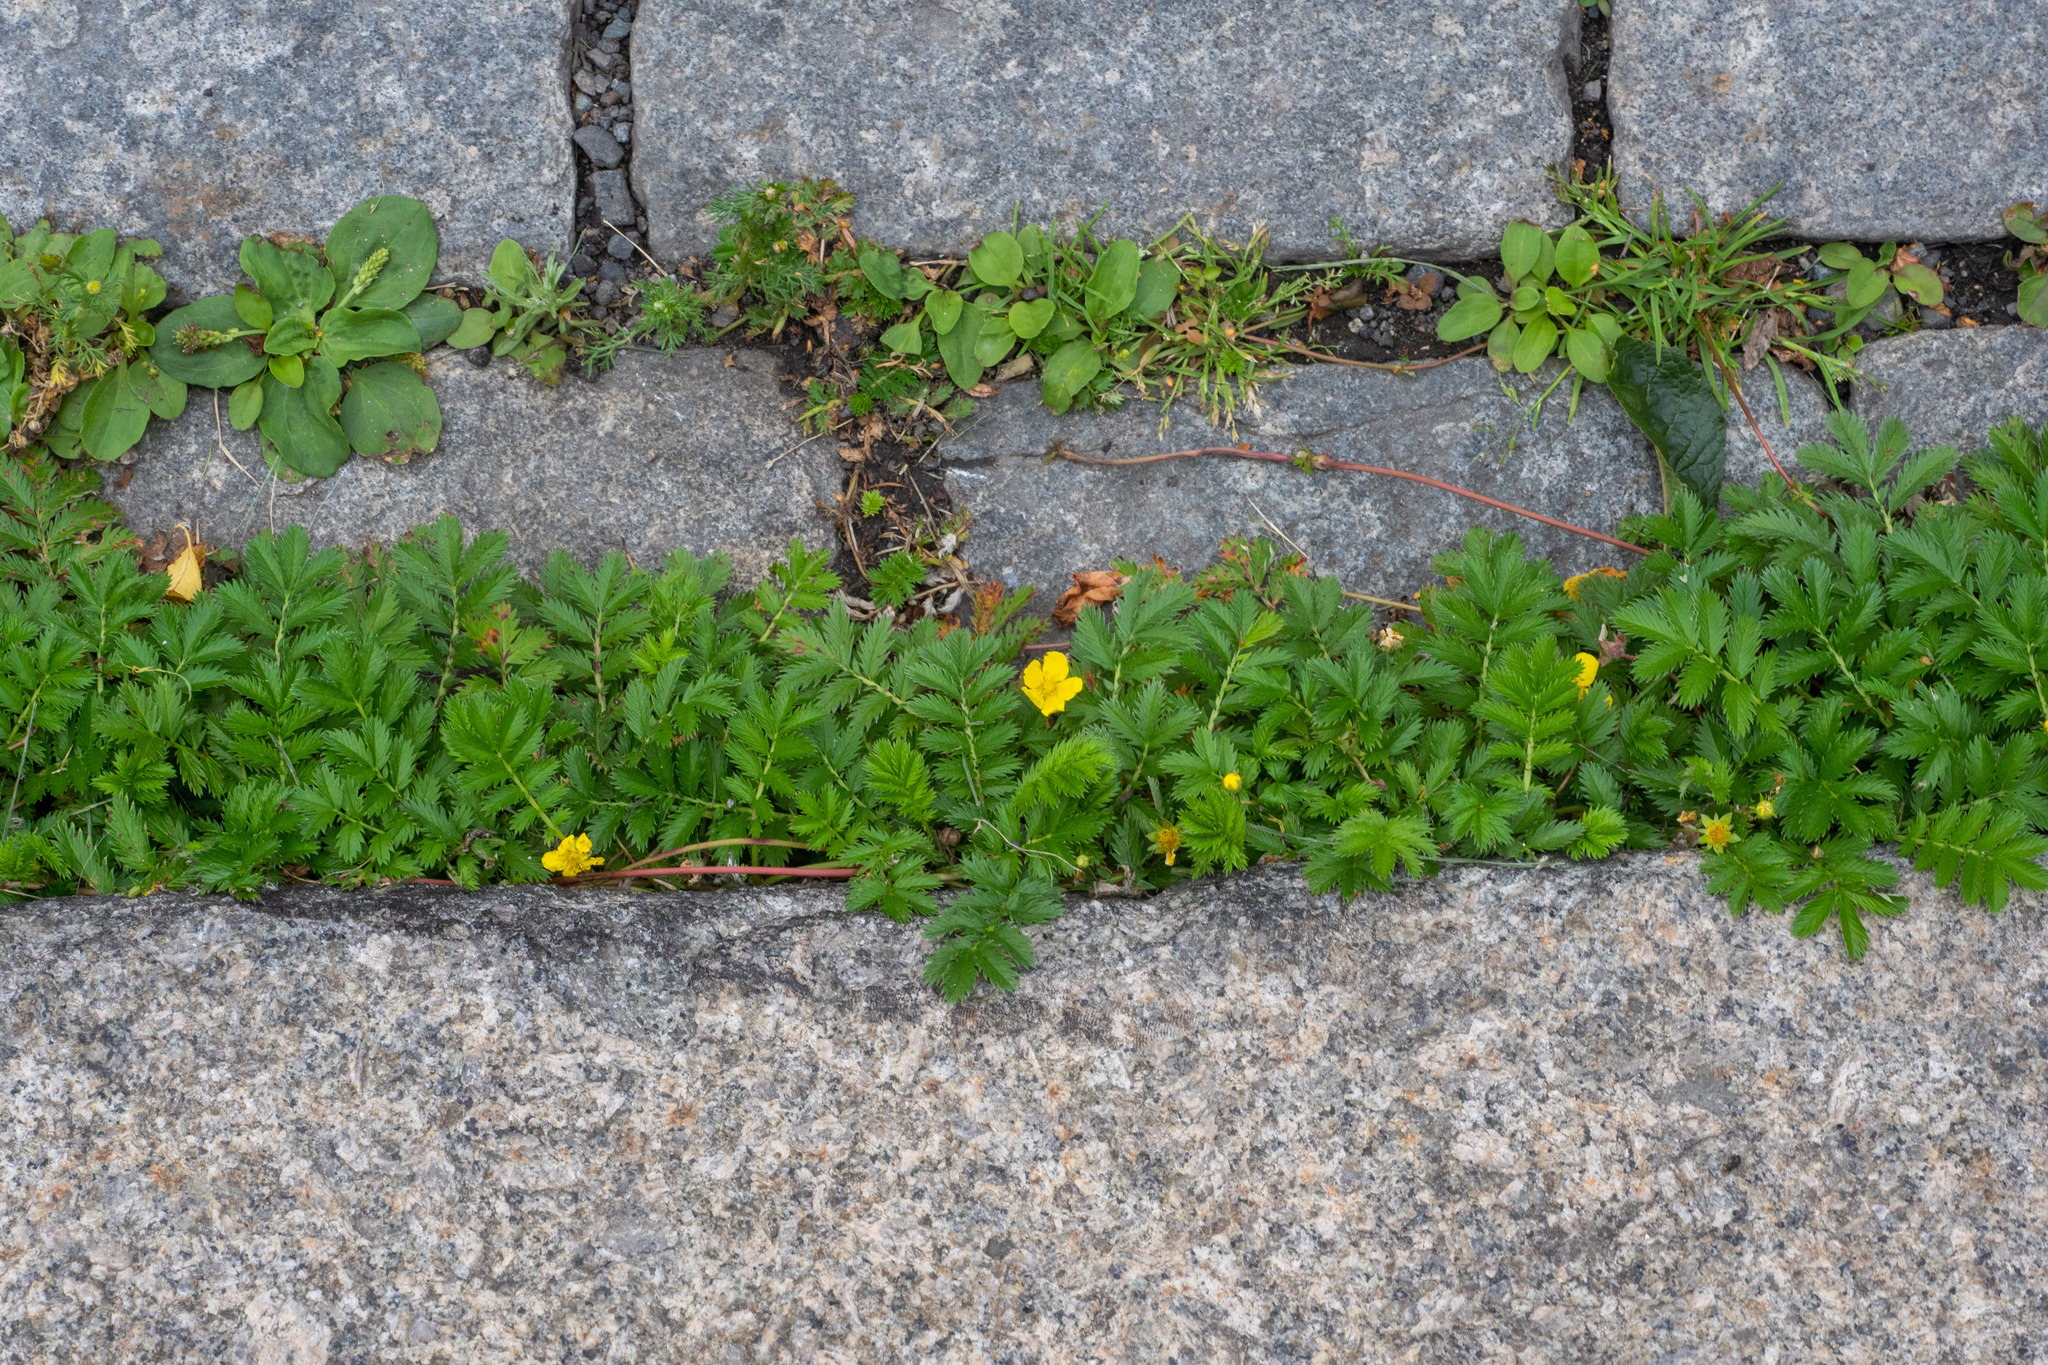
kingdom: Plantae
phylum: Tracheophyta
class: Magnoliopsida
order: Rosales
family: Rosaceae
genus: Argentina
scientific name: Argentina anserina
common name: Common silverweed
